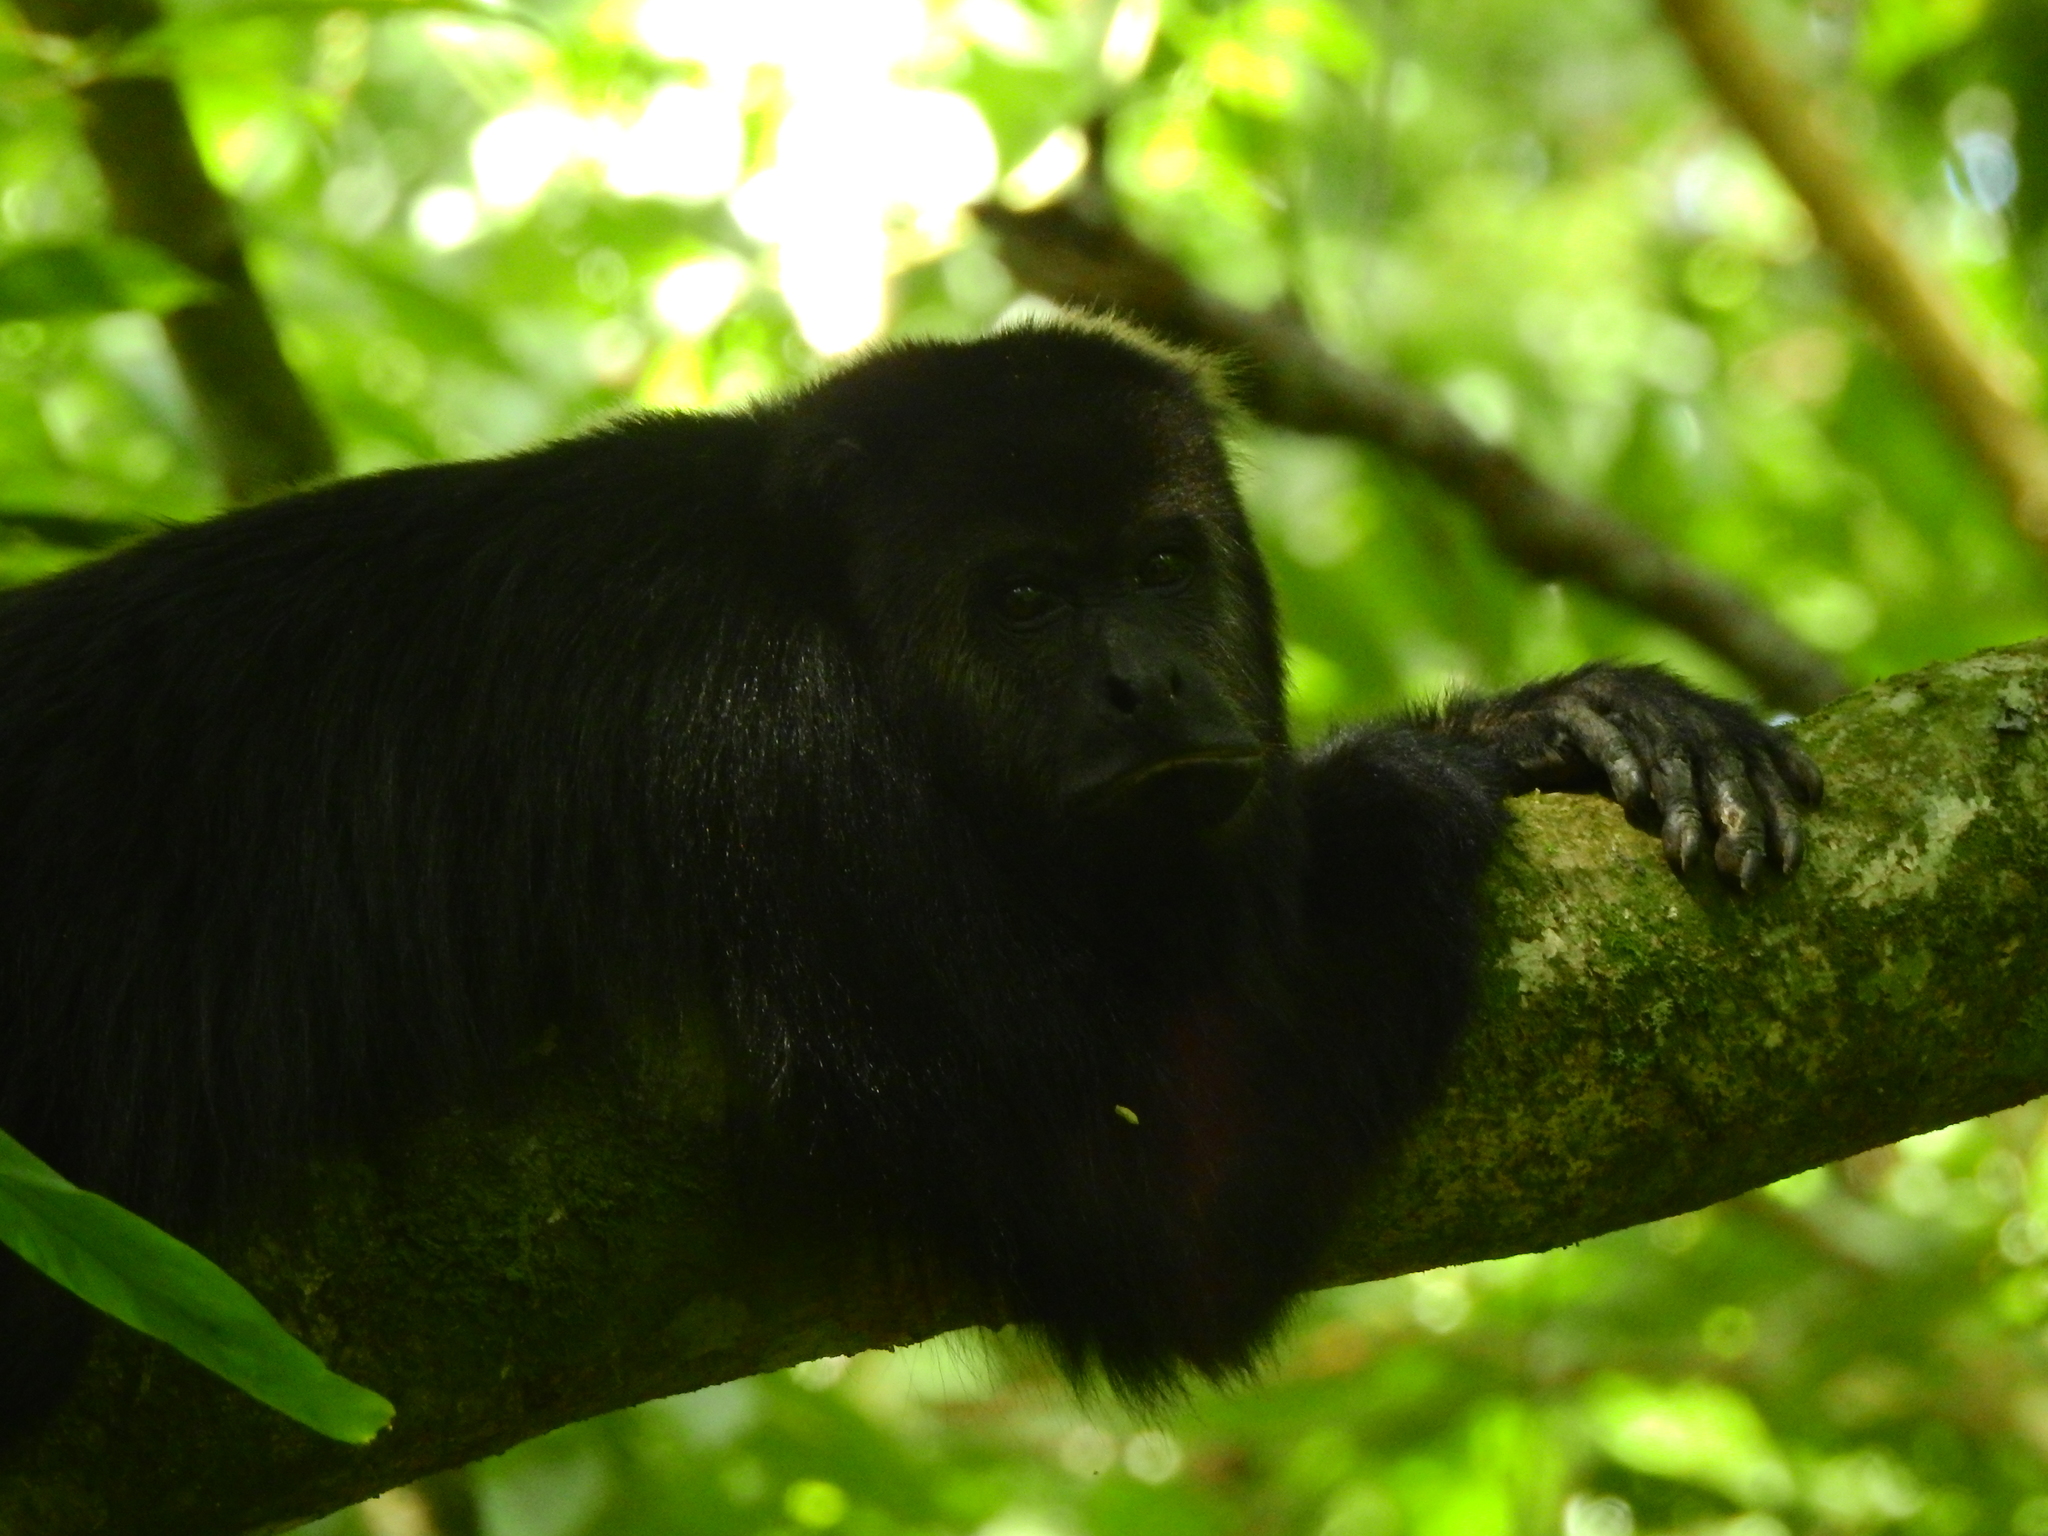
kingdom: Animalia
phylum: Chordata
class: Mammalia
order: Primates
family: Atelidae
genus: Alouatta
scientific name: Alouatta pigra
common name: Guatemalan black howler
